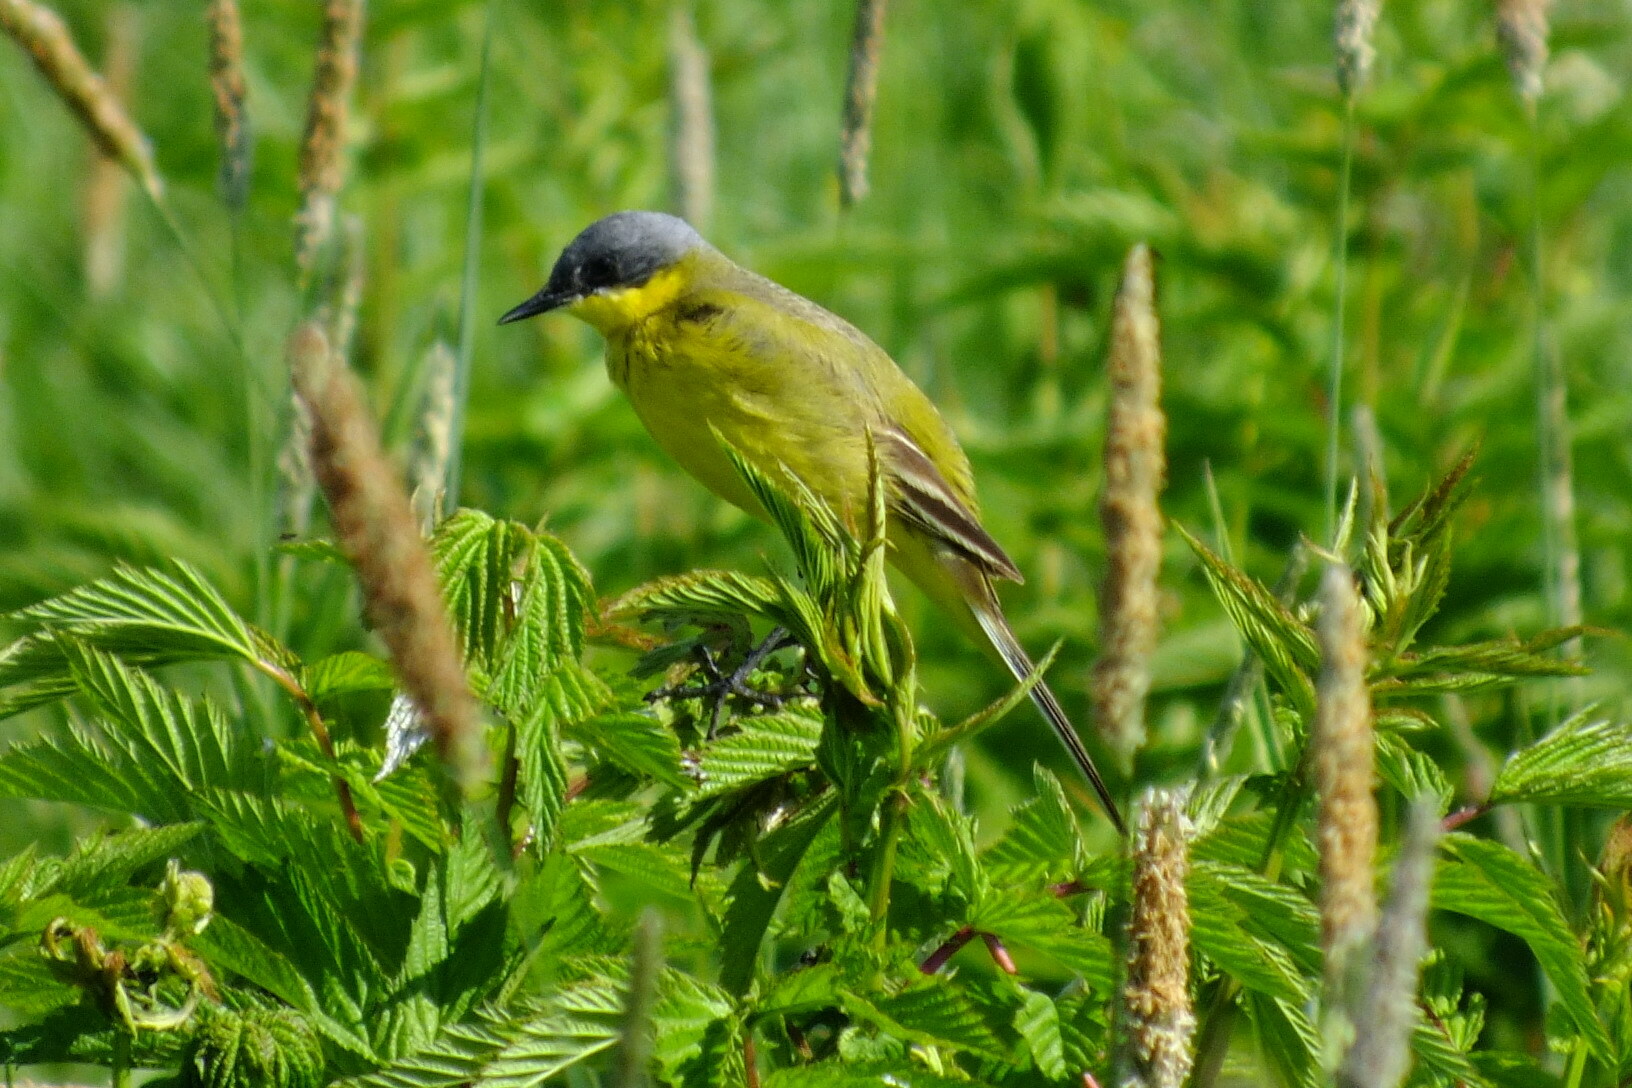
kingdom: Animalia
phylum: Chordata
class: Aves
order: Passeriformes
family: Motacillidae
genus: Motacilla
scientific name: Motacilla flava
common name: Western yellow wagtail
